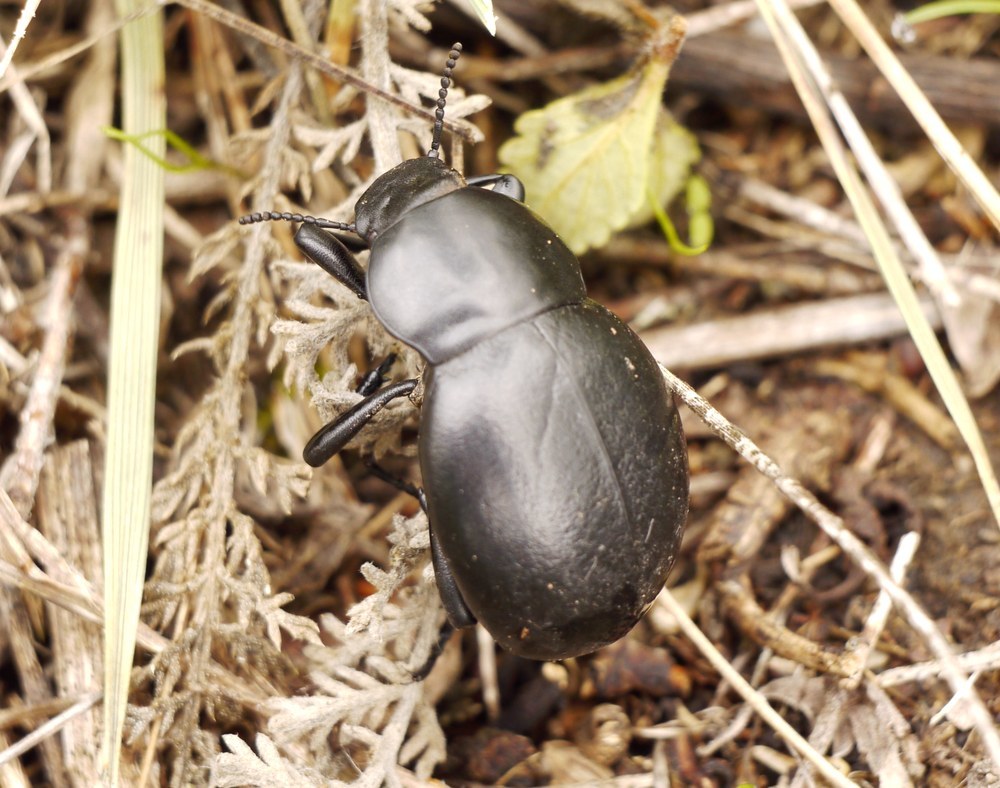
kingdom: Animalia
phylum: Arthropoda
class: Insecta
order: Coleoptera
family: Tenebrionidae
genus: Gnaptor
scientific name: Gnaptor spinimanus
